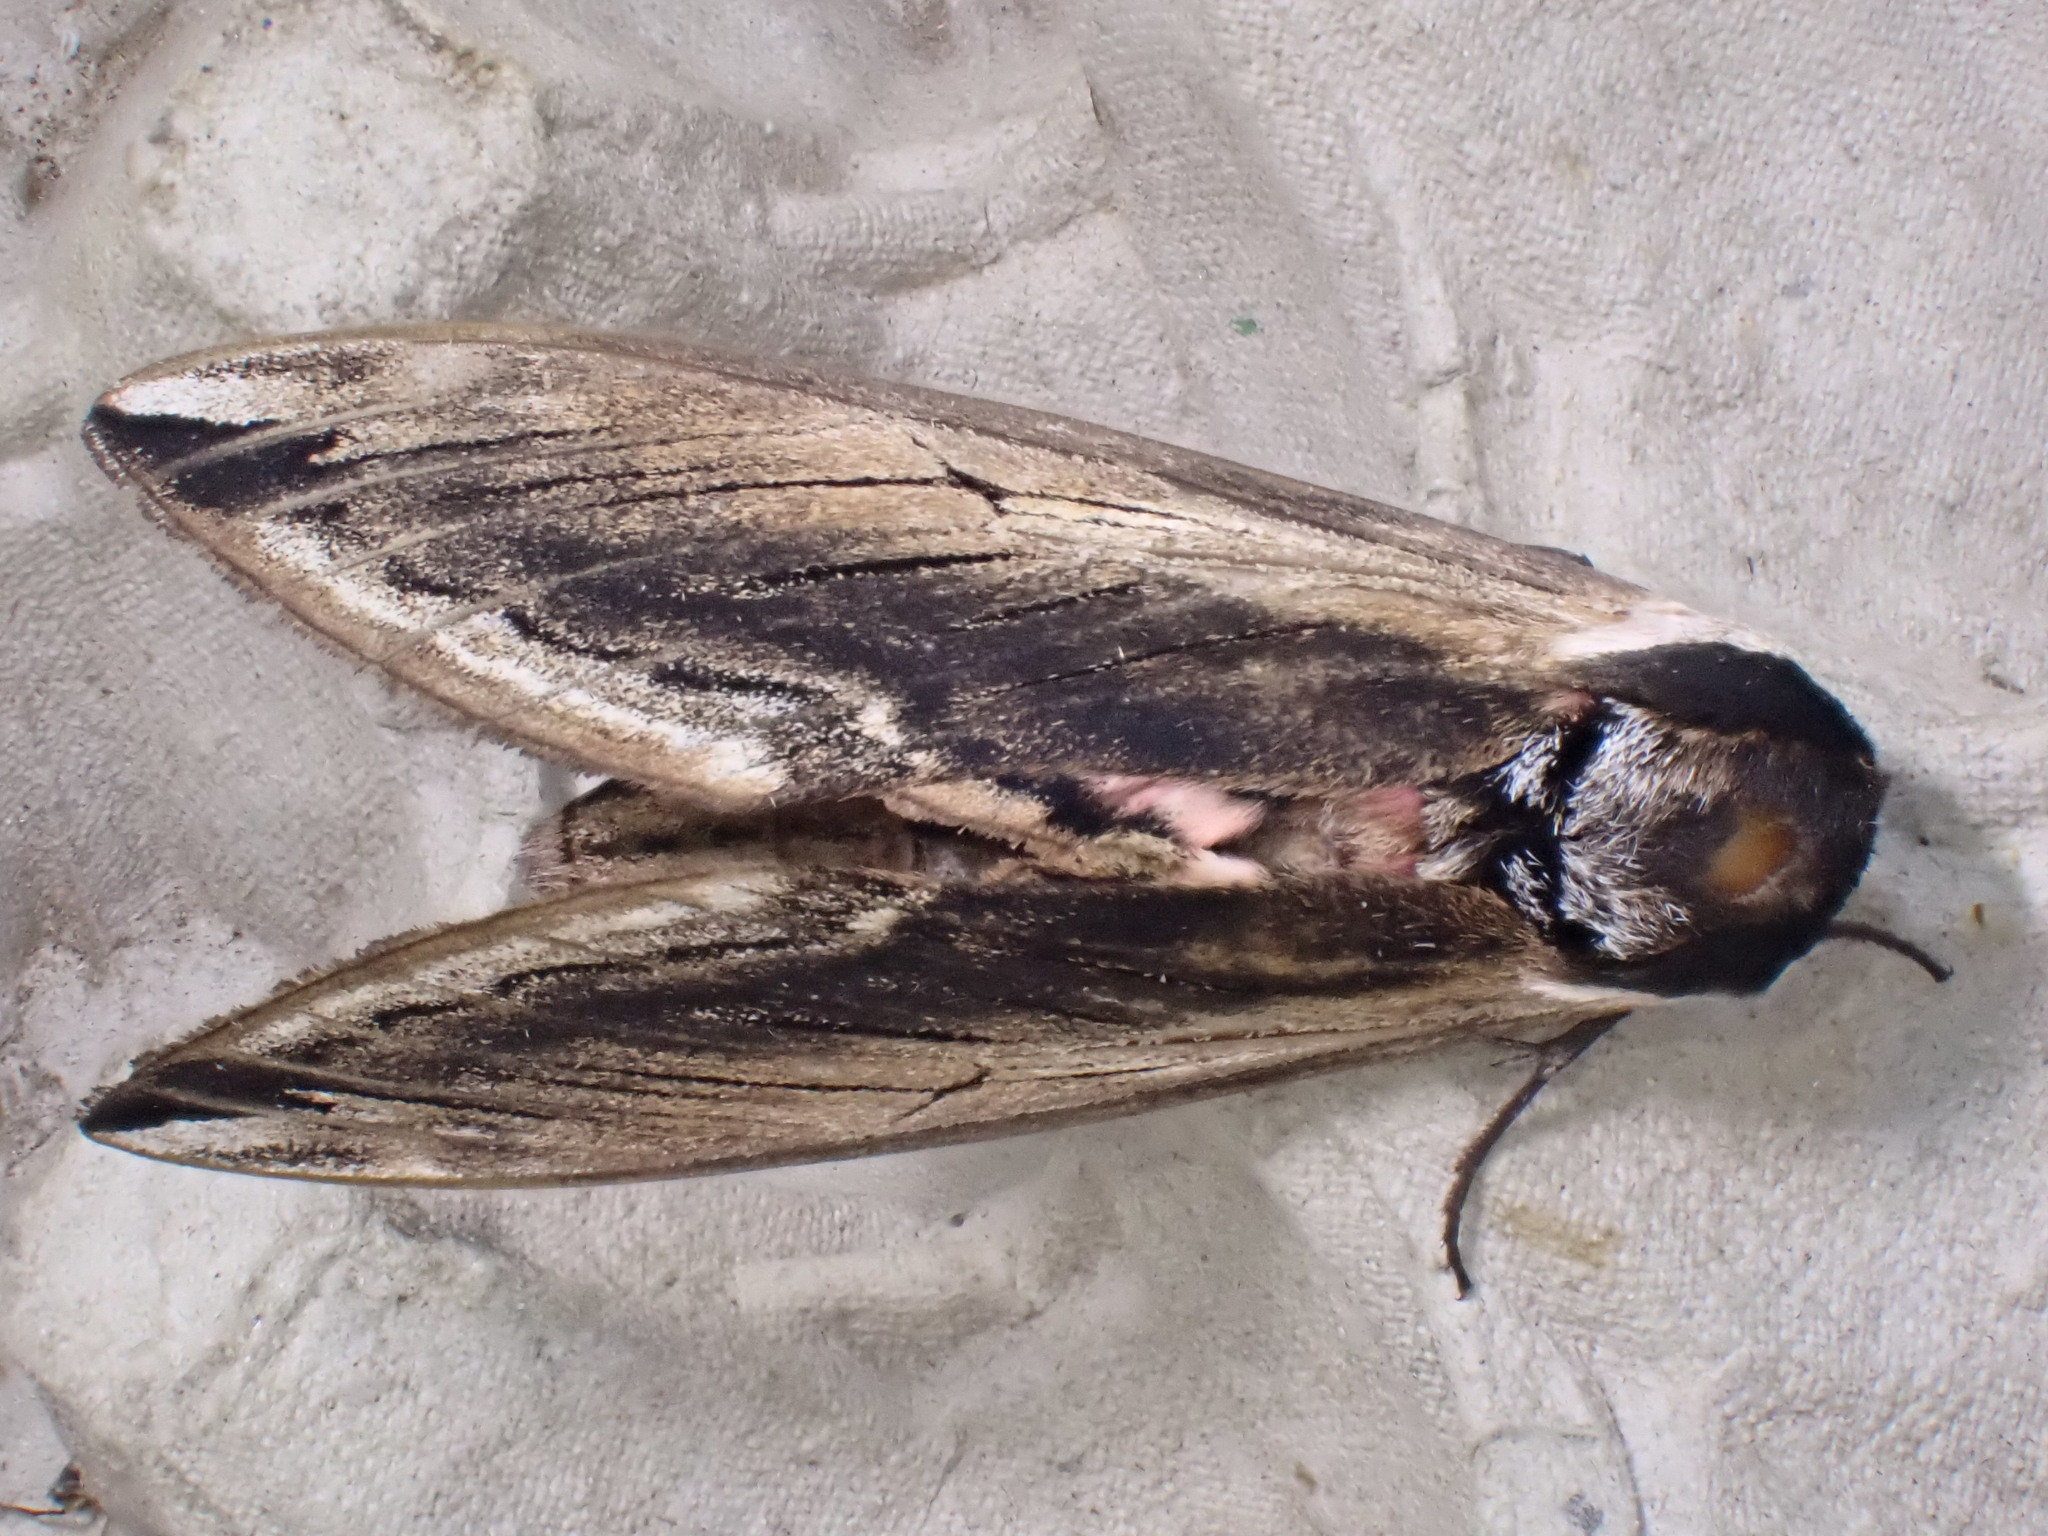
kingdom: Animalia
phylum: Arthropoda
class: Insecta
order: Lepidoptera
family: Sphingidae
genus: Sphinx
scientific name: Sphinx ligustri
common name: Privet hawk-moth
